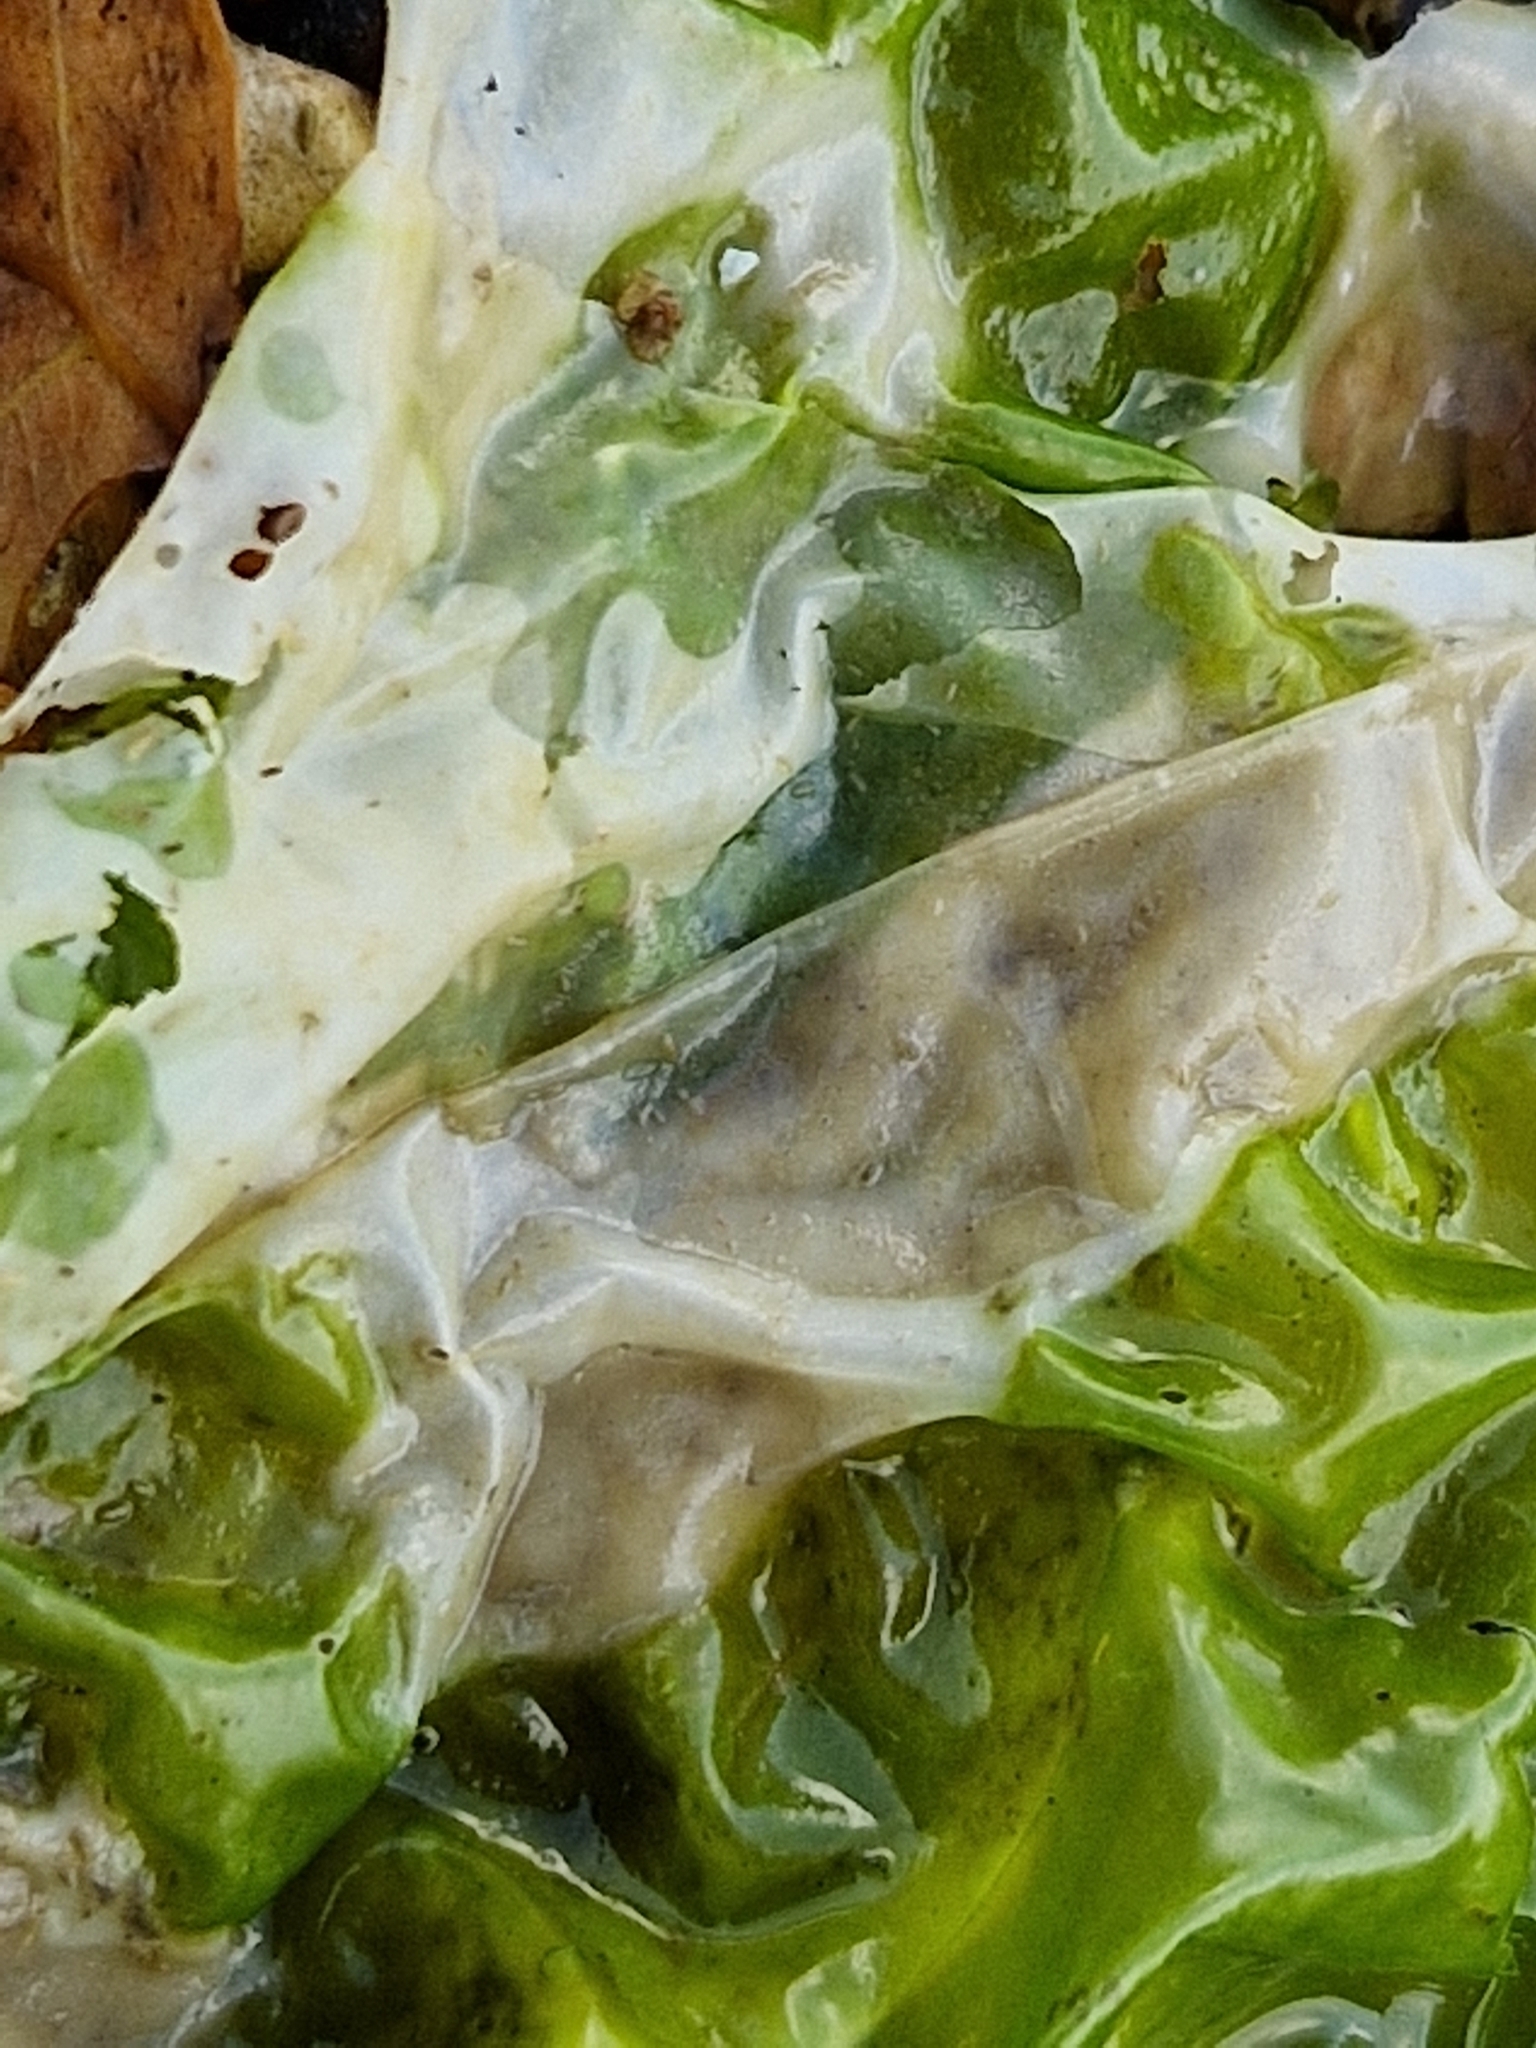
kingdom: Plantae
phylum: Chlorophyta
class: Ulvophyceae
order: Ulvales
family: Ulvaceae
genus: Ulva
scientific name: Ulva lactuca
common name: Sea lettuce
